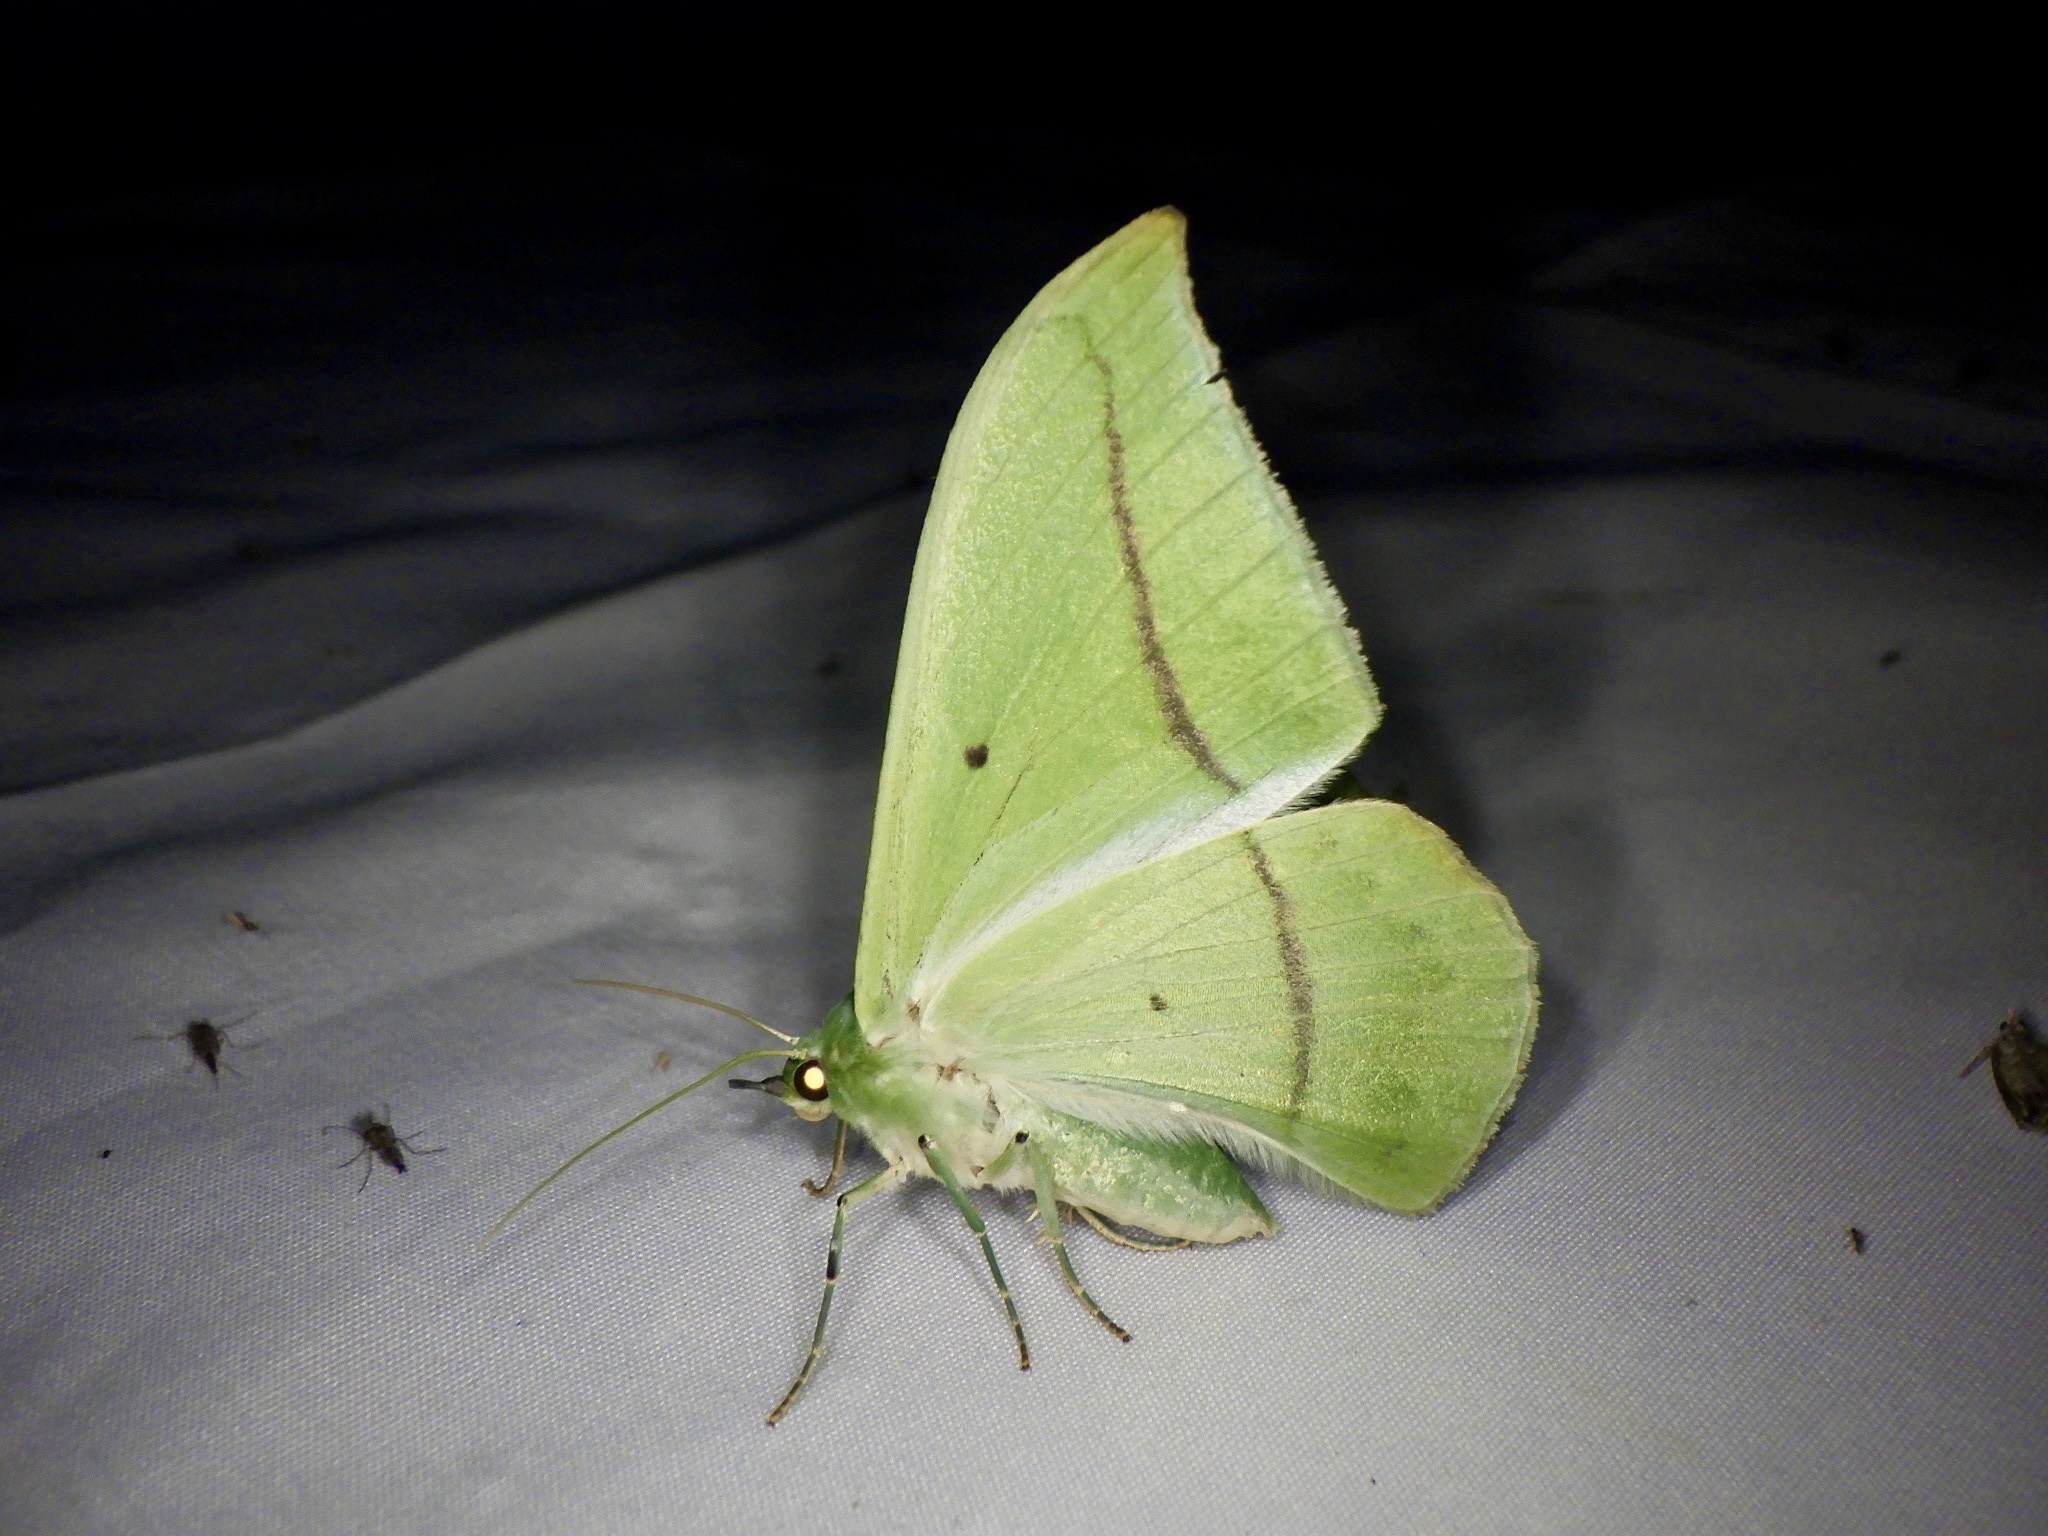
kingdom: Animalia
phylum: Arthropoda
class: Insecta
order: Lepidoptera
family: Geometridae
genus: Tanaorhinus
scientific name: Tanaorhinus reciprocata
